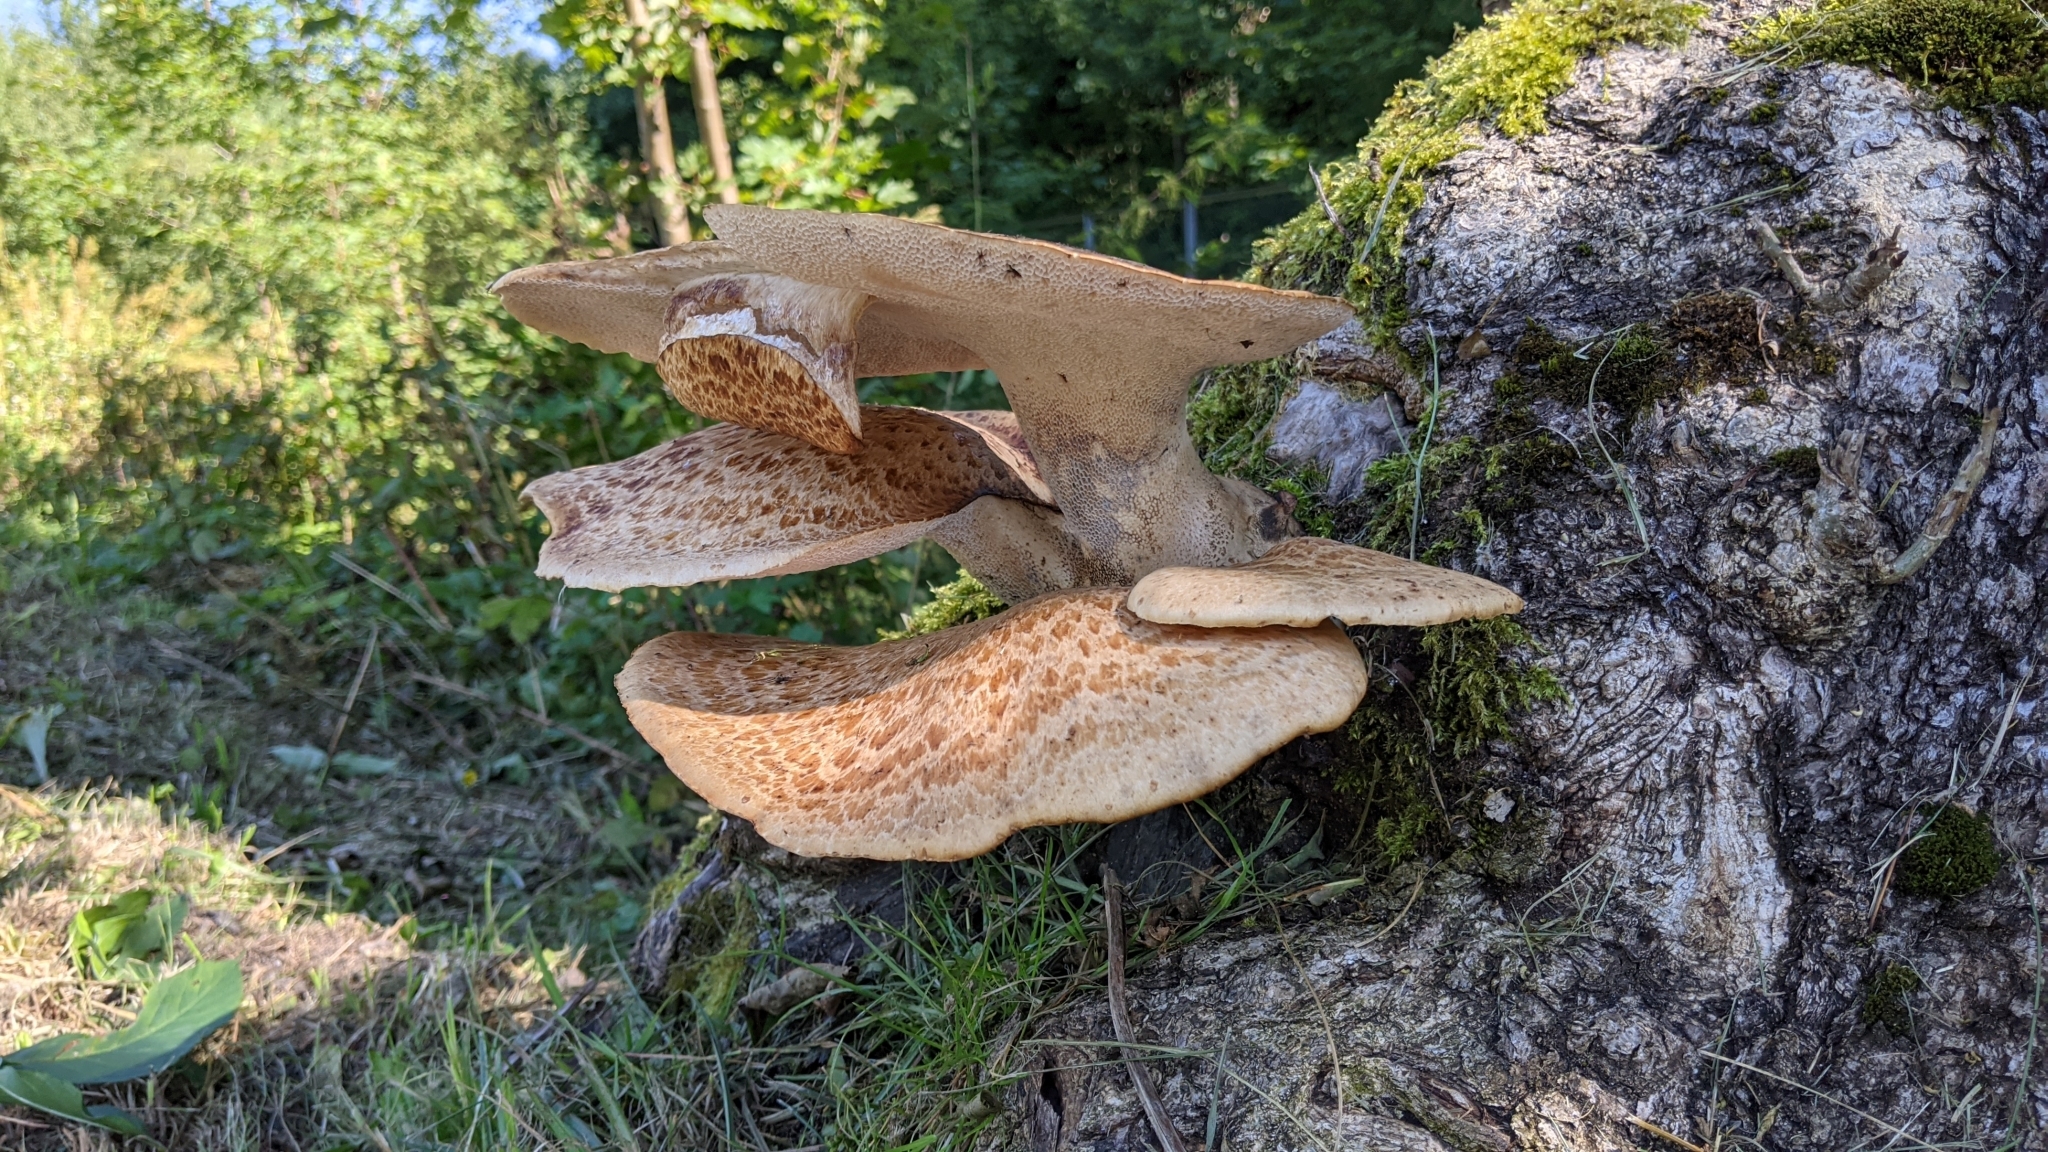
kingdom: Fungi
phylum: Basidiomycota
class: Agaricomycetes
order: Polyporales
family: Polyporaceae
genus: Cerioporus
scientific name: Cerioporus squamosus
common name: Dryad's saddle
